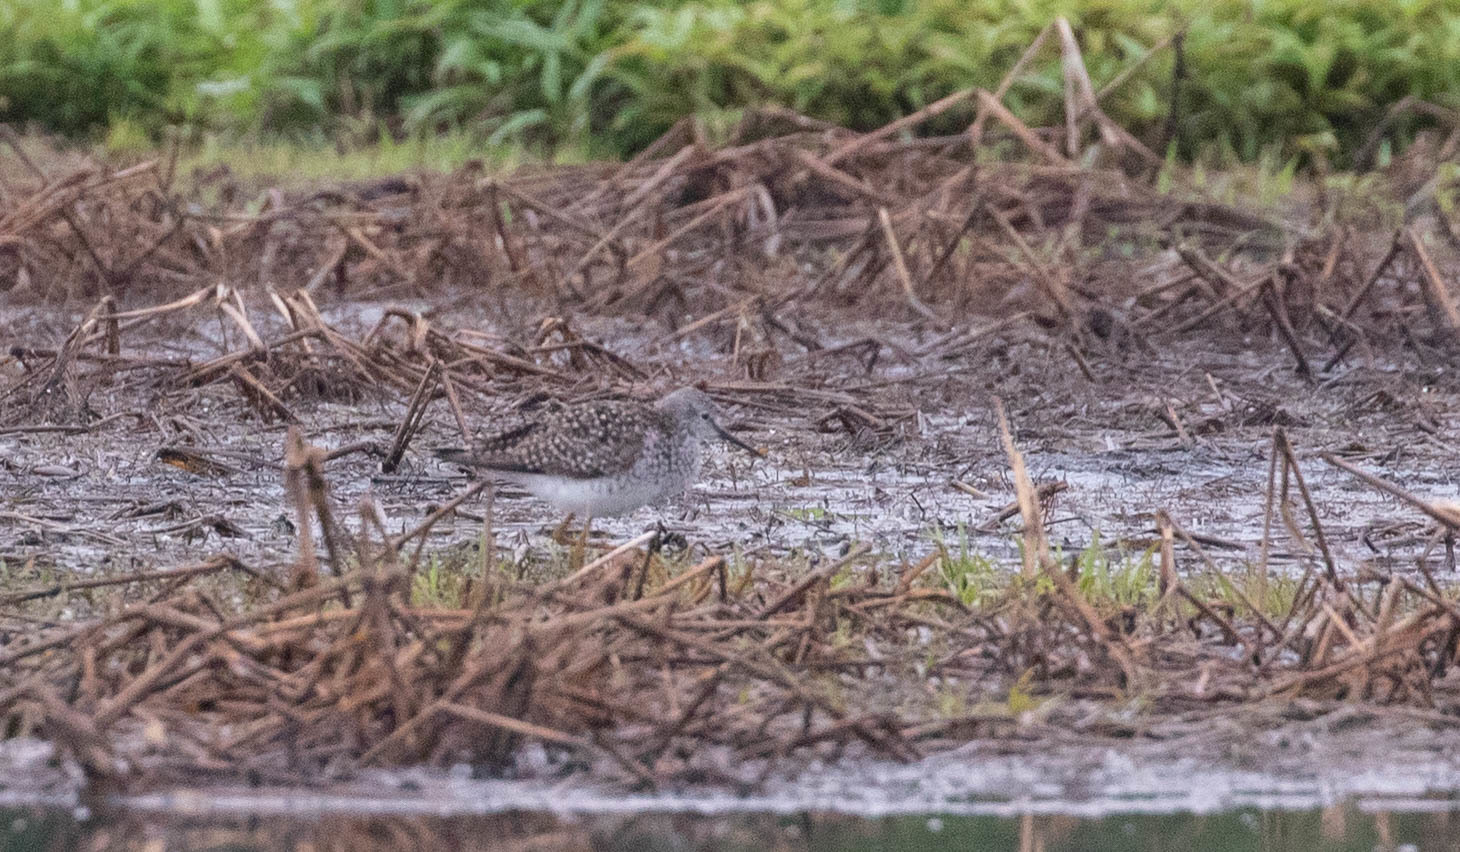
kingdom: Animalia
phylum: Chordata
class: Aves
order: Charadriiformes
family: Scolopacidae
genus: Tringa
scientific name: Tringa flavipes
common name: Lesser yellowlegs
